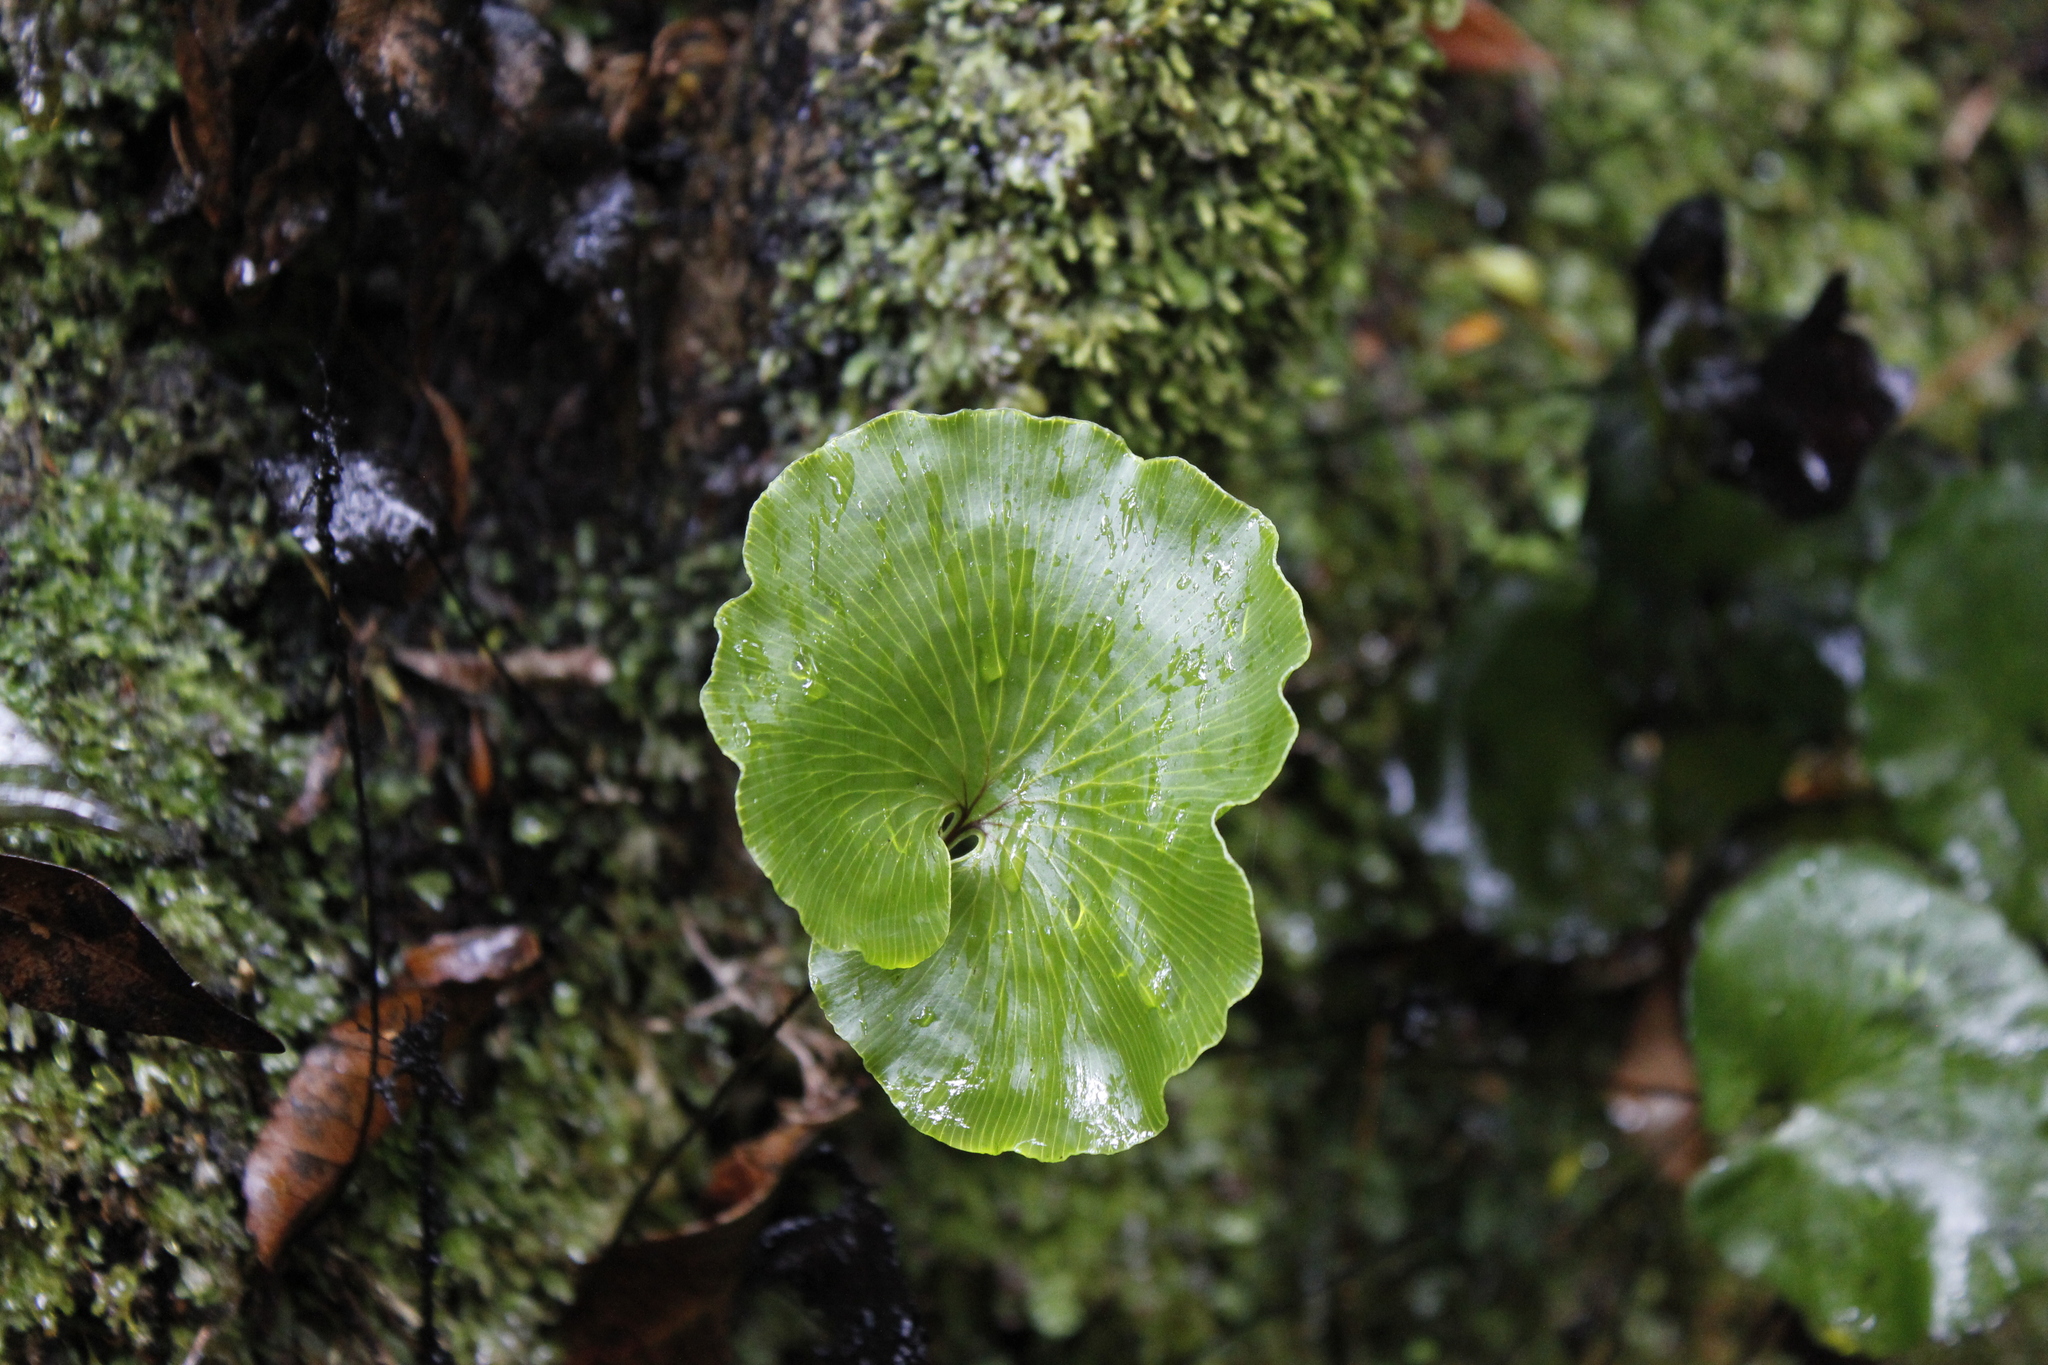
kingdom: Plantae
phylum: Tracheophyta
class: Polypodiopsida
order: Hymenophyllales
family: Hymenophyllaceae
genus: Hymenophyllum
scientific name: Hymenophyllum nephrophyllum
